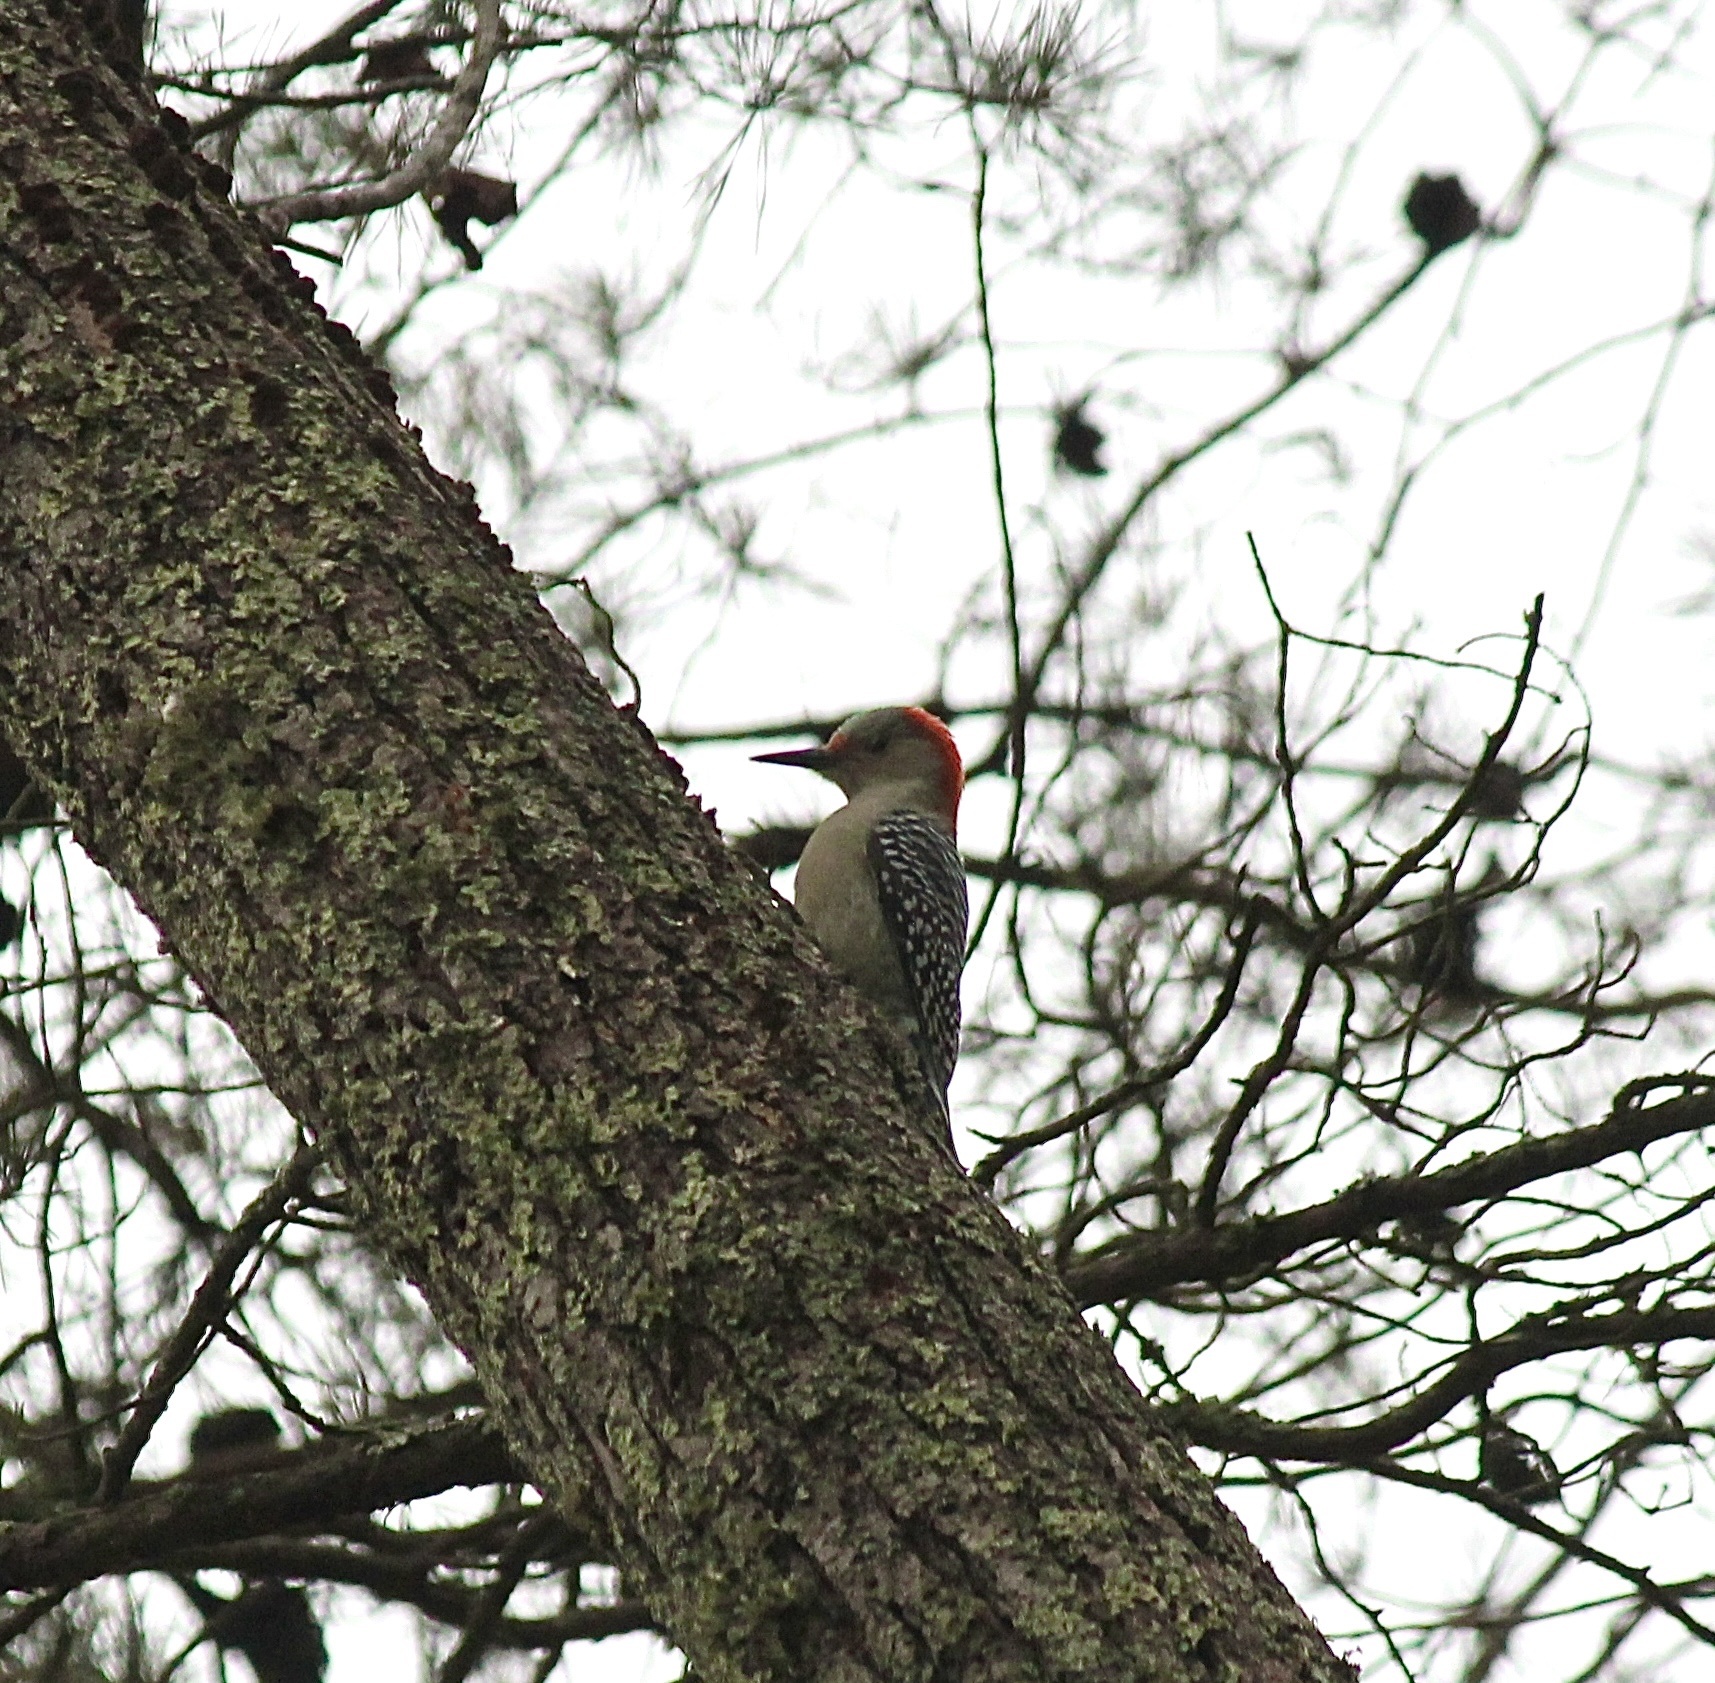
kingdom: Animalia
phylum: Chordata
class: Aves
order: Piciformes
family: Picidae
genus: Melanerpes
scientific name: Melanerpes carolinus
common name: Red-bellied woodpecker
